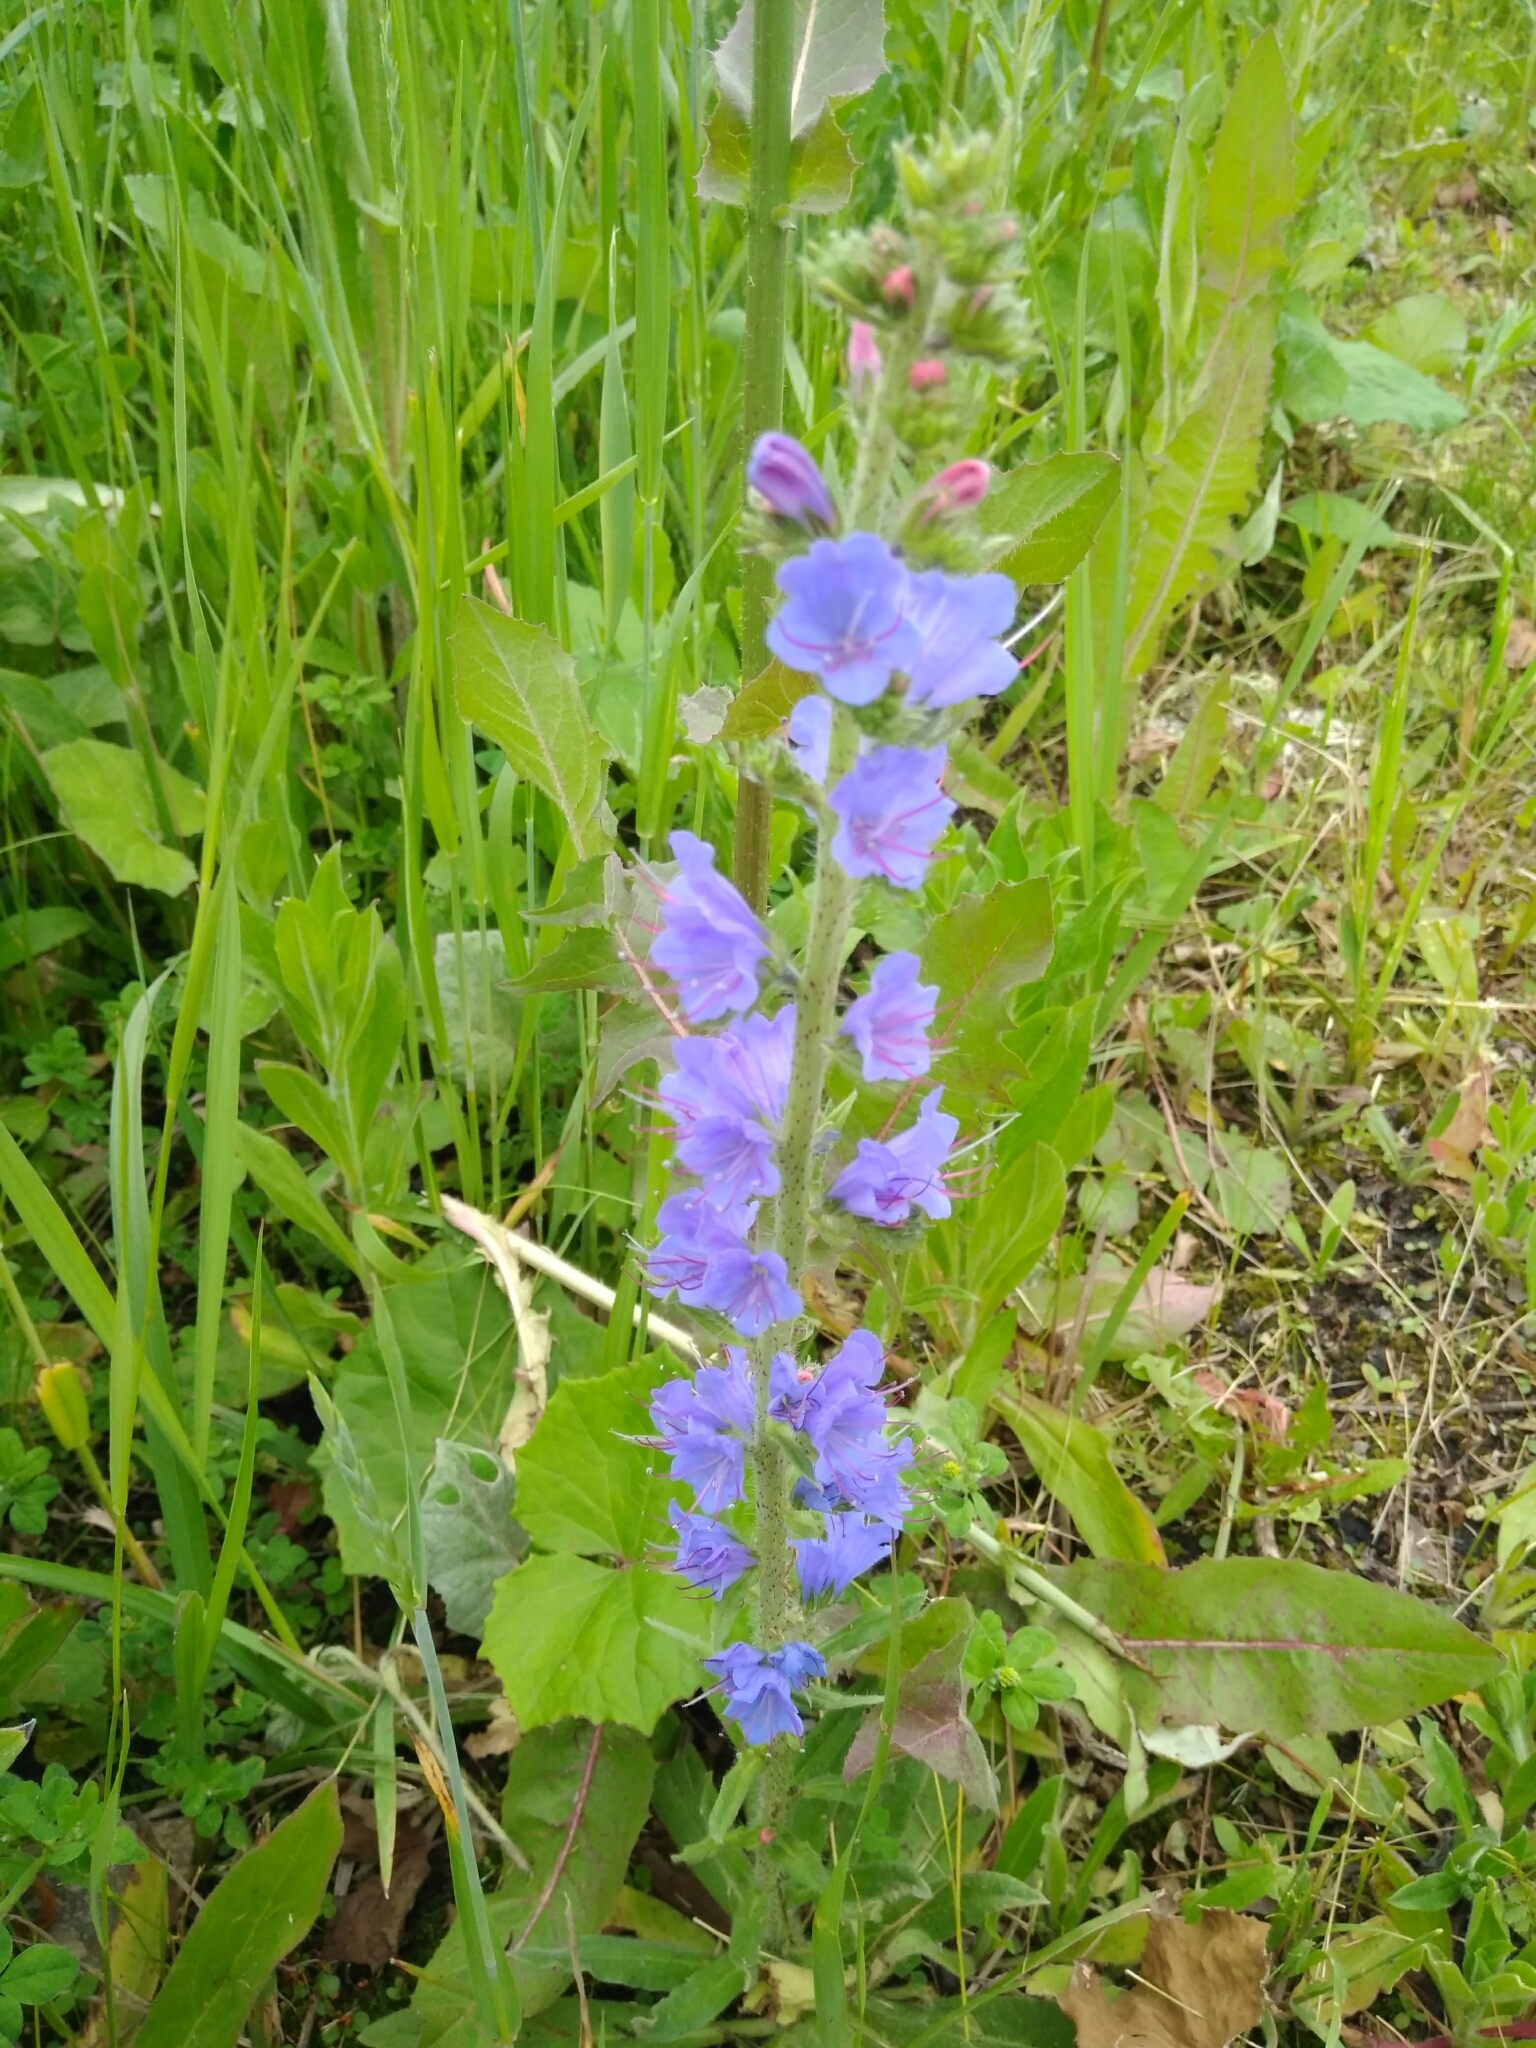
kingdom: Plantae
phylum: Tracheophyta
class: Magnoliopsida
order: Boraginales
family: Boraginaceae
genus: Echium
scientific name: Echium vulgare
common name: Common viper's bugloss
